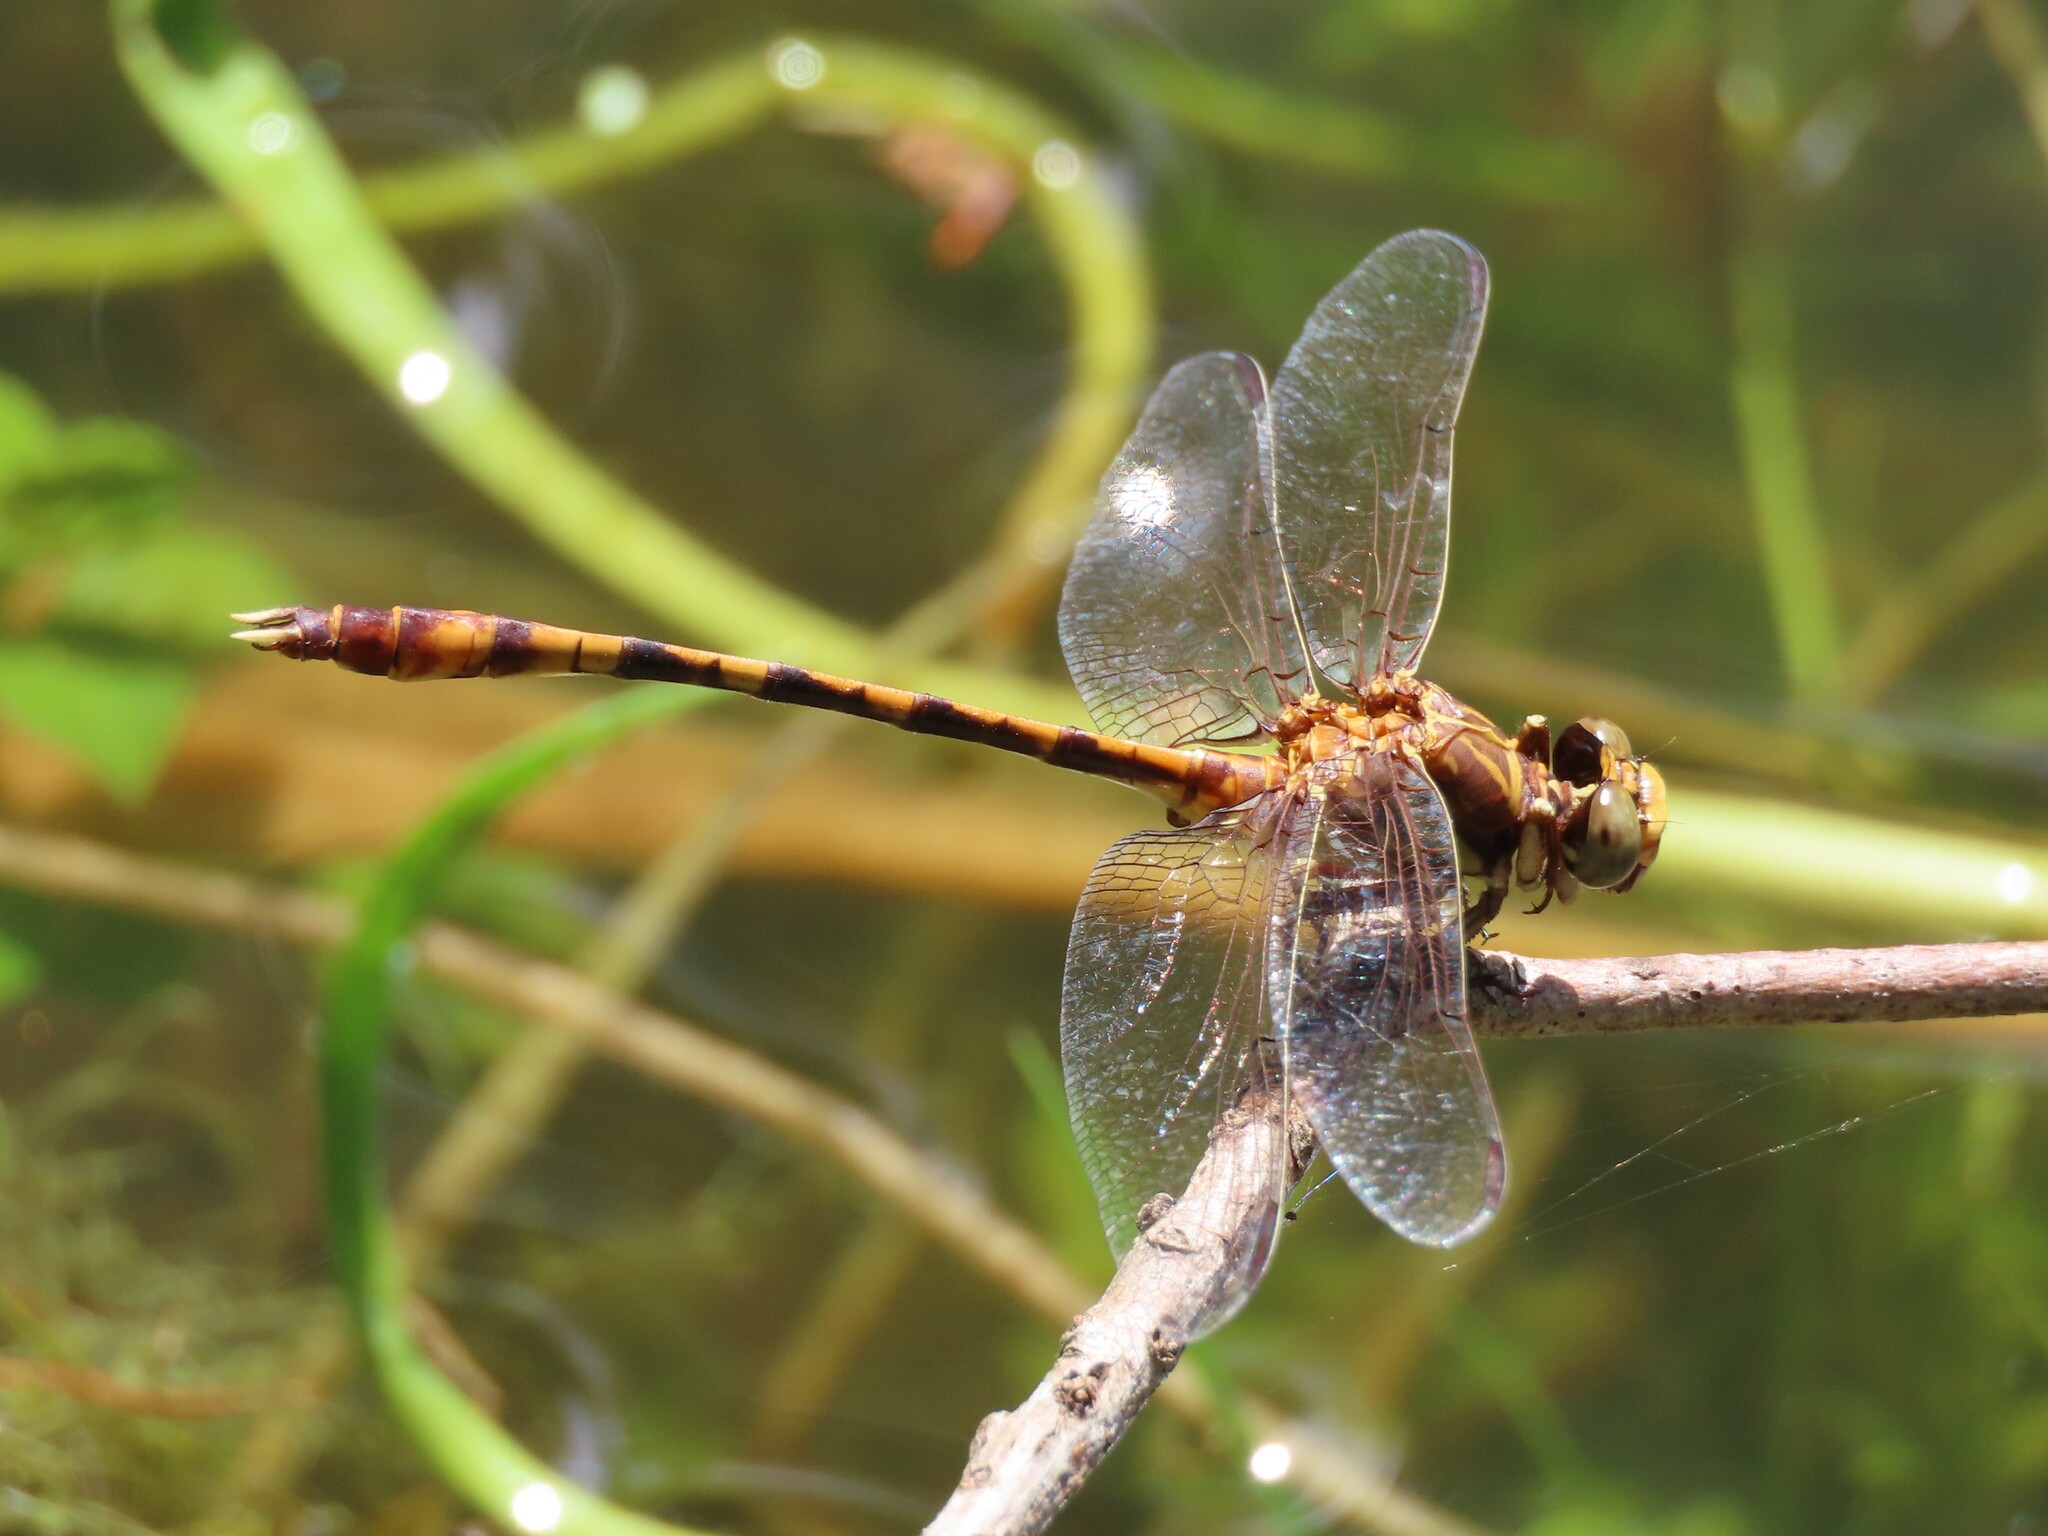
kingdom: Animalia
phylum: Arthropoda
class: Insecta
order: Odonata
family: Gomphidae
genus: Progomphus
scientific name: Progomphus alachuensis
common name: Tawny sanddragon
